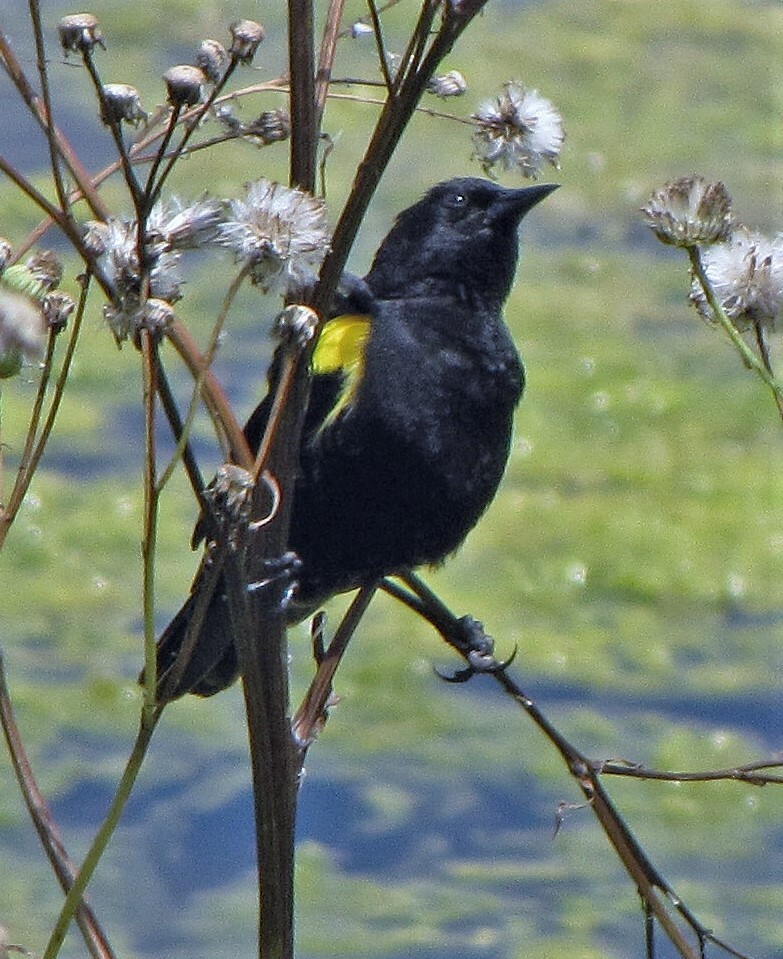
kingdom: Animalia
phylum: Chordata
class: Aves
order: Passeriformes
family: Icteridae
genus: Agelasticus
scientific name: Agelasticus thilius
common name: Yellow-winged blackbird
